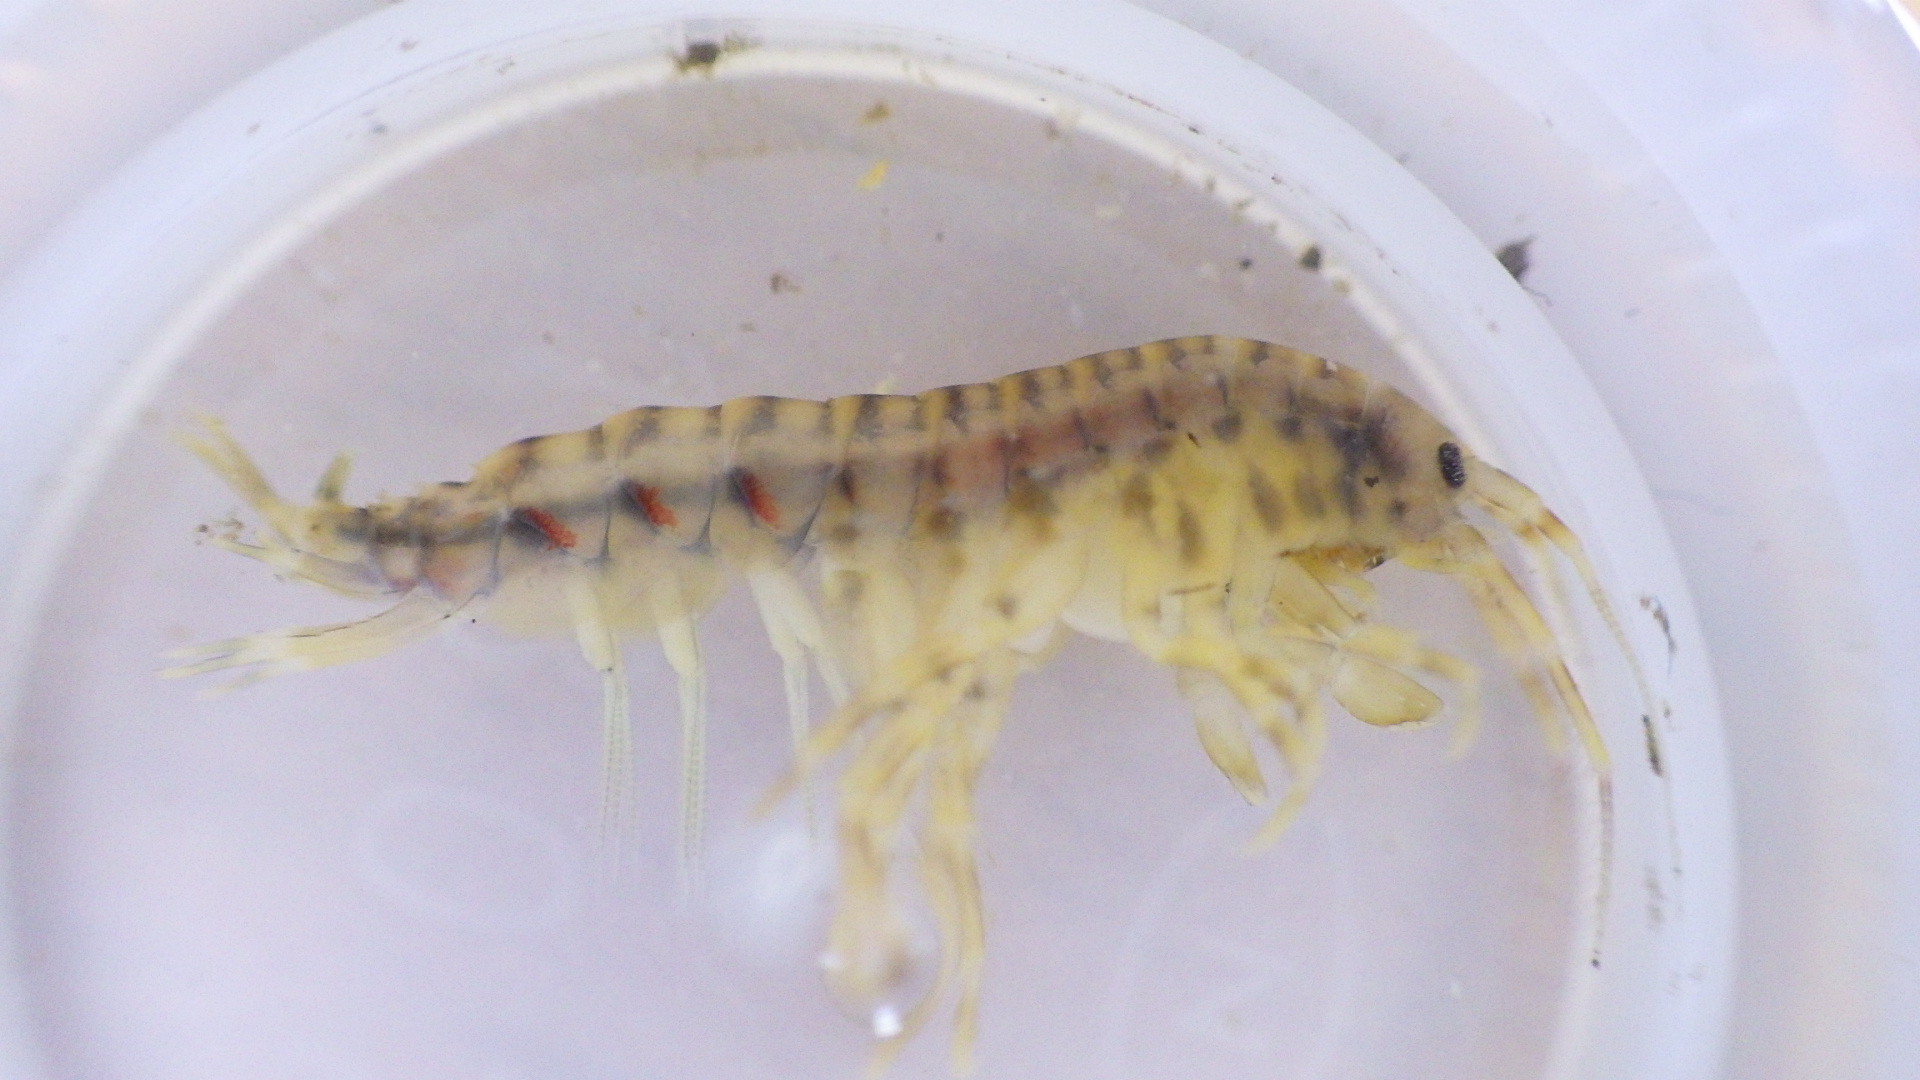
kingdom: Animalia
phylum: Arthropoda
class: Malacostraca
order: Amphipoda
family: Gammaridae
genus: Gammarus
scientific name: Gammarus fasciatus
